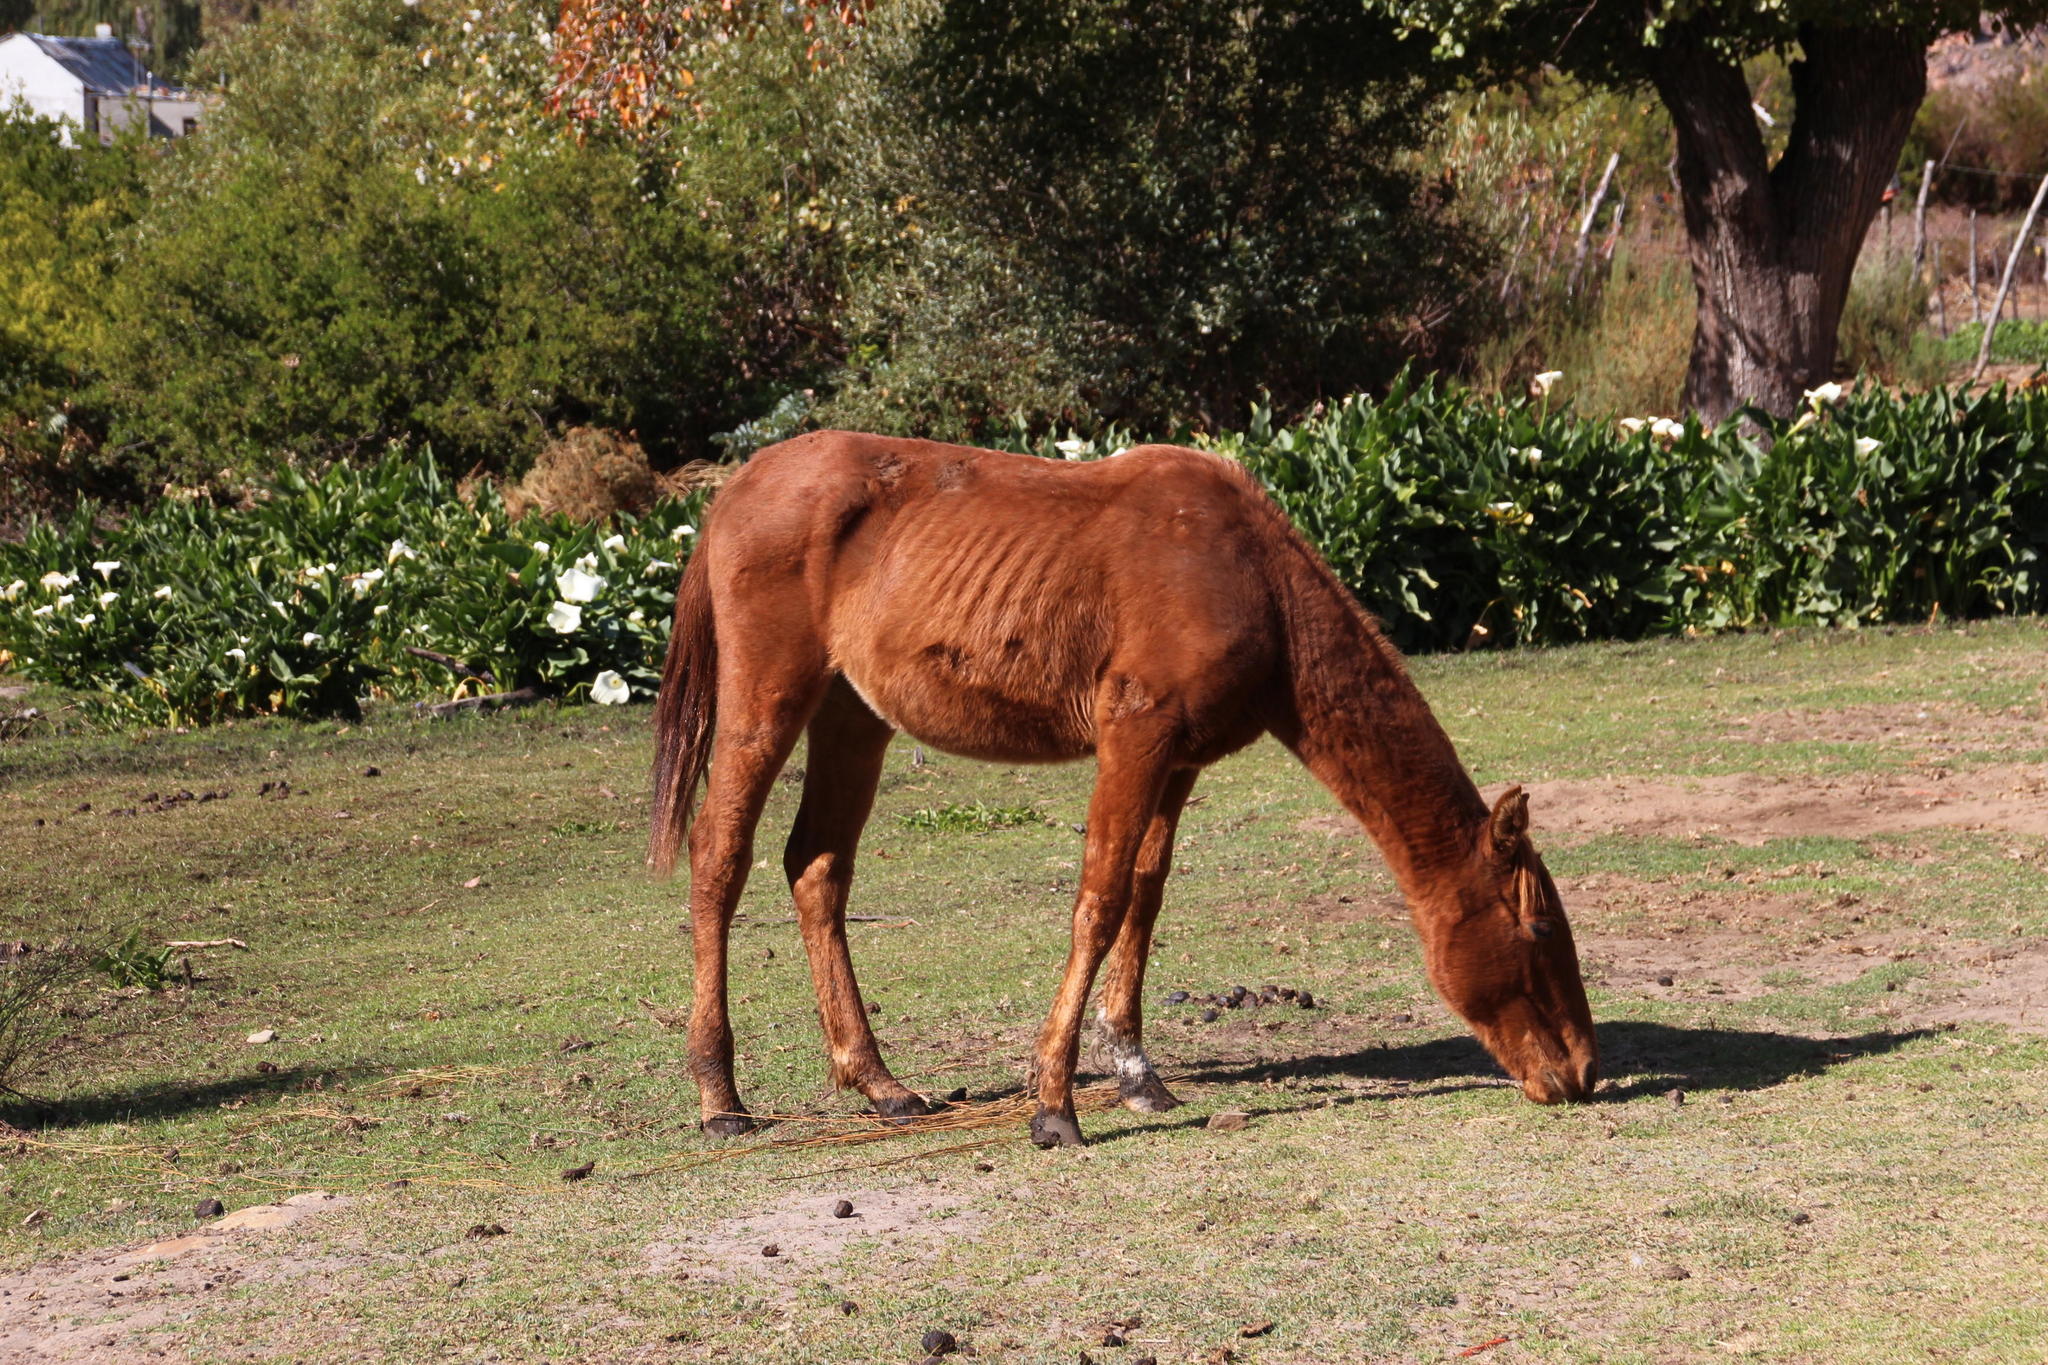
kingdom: Animalia
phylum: Chordata
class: Mammalia
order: Perissodactyla
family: Equidae
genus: Equus
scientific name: Equus caballus
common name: Horse
